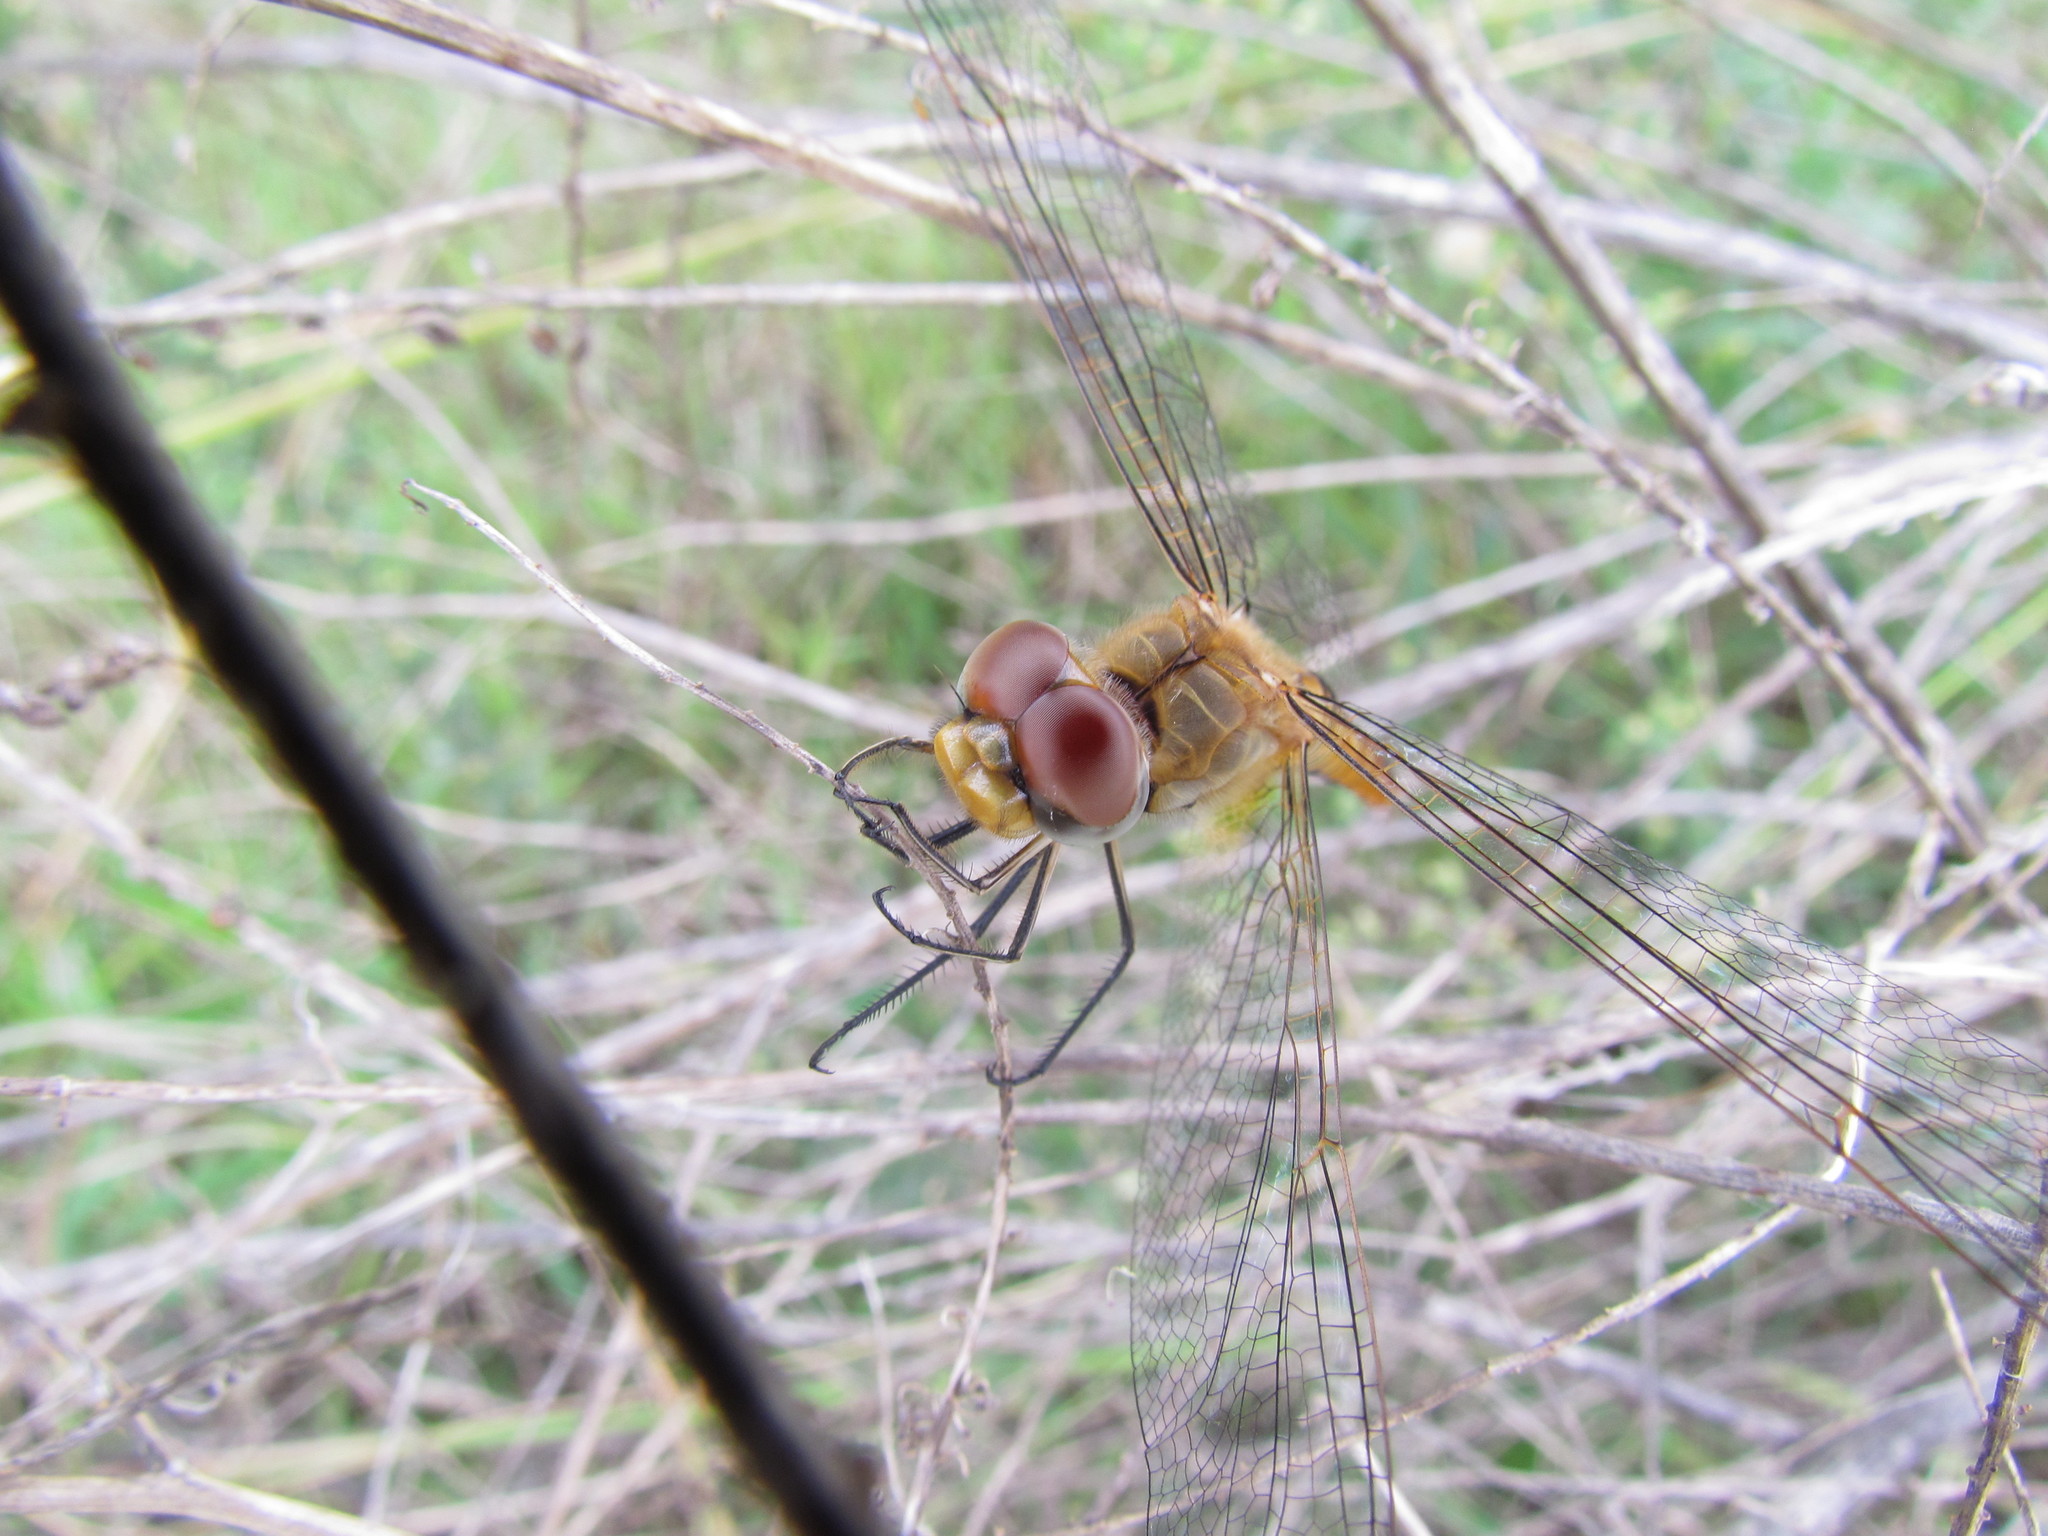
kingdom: Animalia
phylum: Arthropoda
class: Insecta
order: Odonata
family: Libellulidae
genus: Pantala
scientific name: Pantala flavescens
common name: Wandering glider
